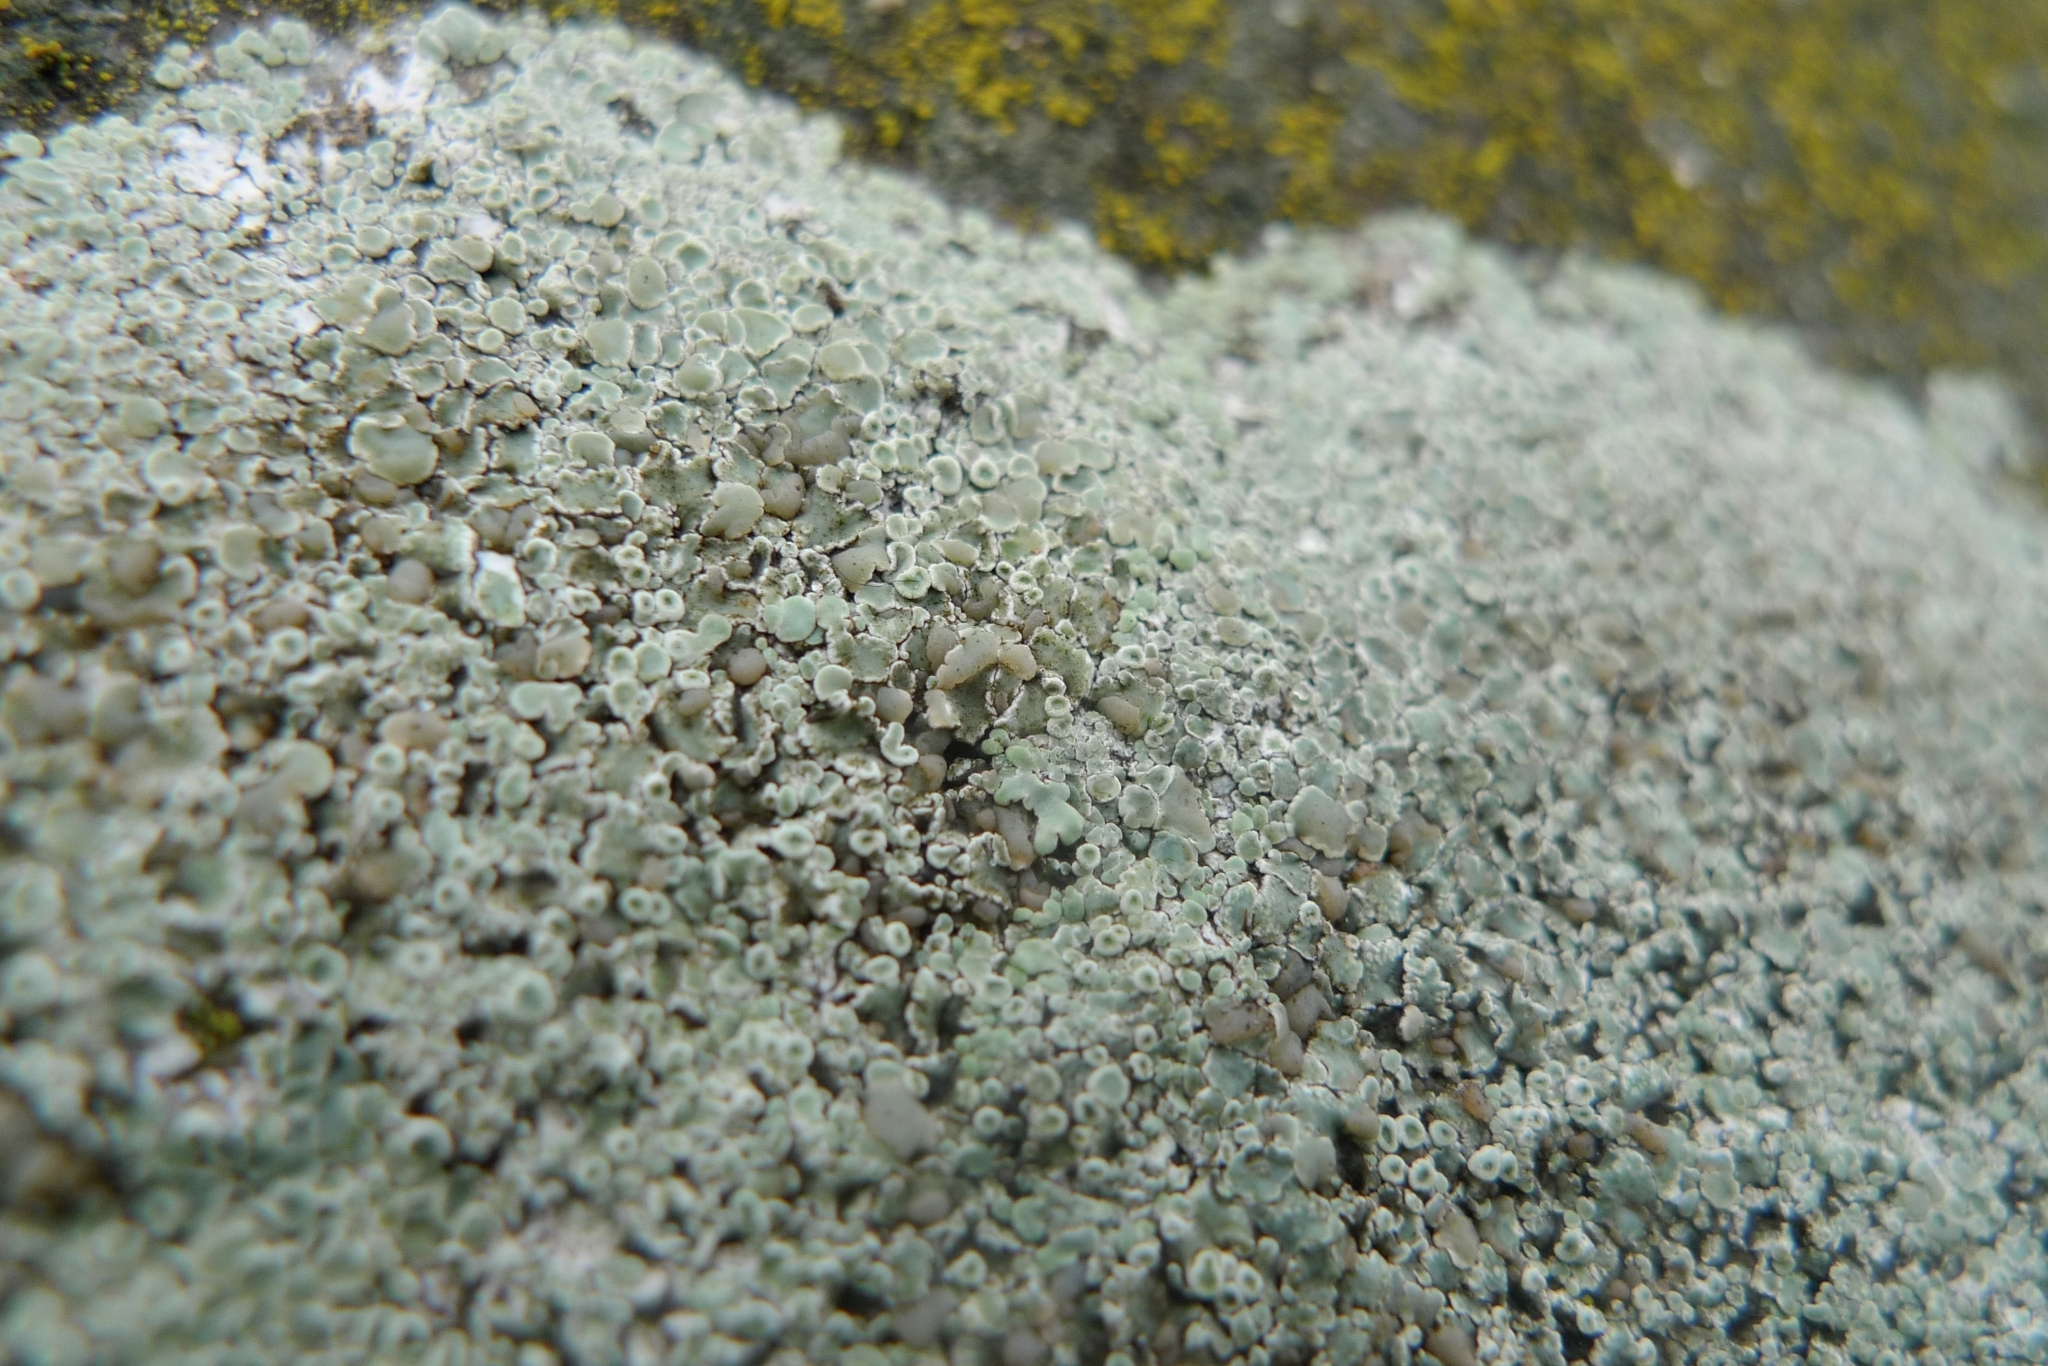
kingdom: Fungi
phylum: Ascomycota
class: Lecanoromycetes
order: Lecanorales
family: Lecanoraceae
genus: Protoparmeliopsis
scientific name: Protoparmeliopsis muralis
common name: Stonewall rim lichen
